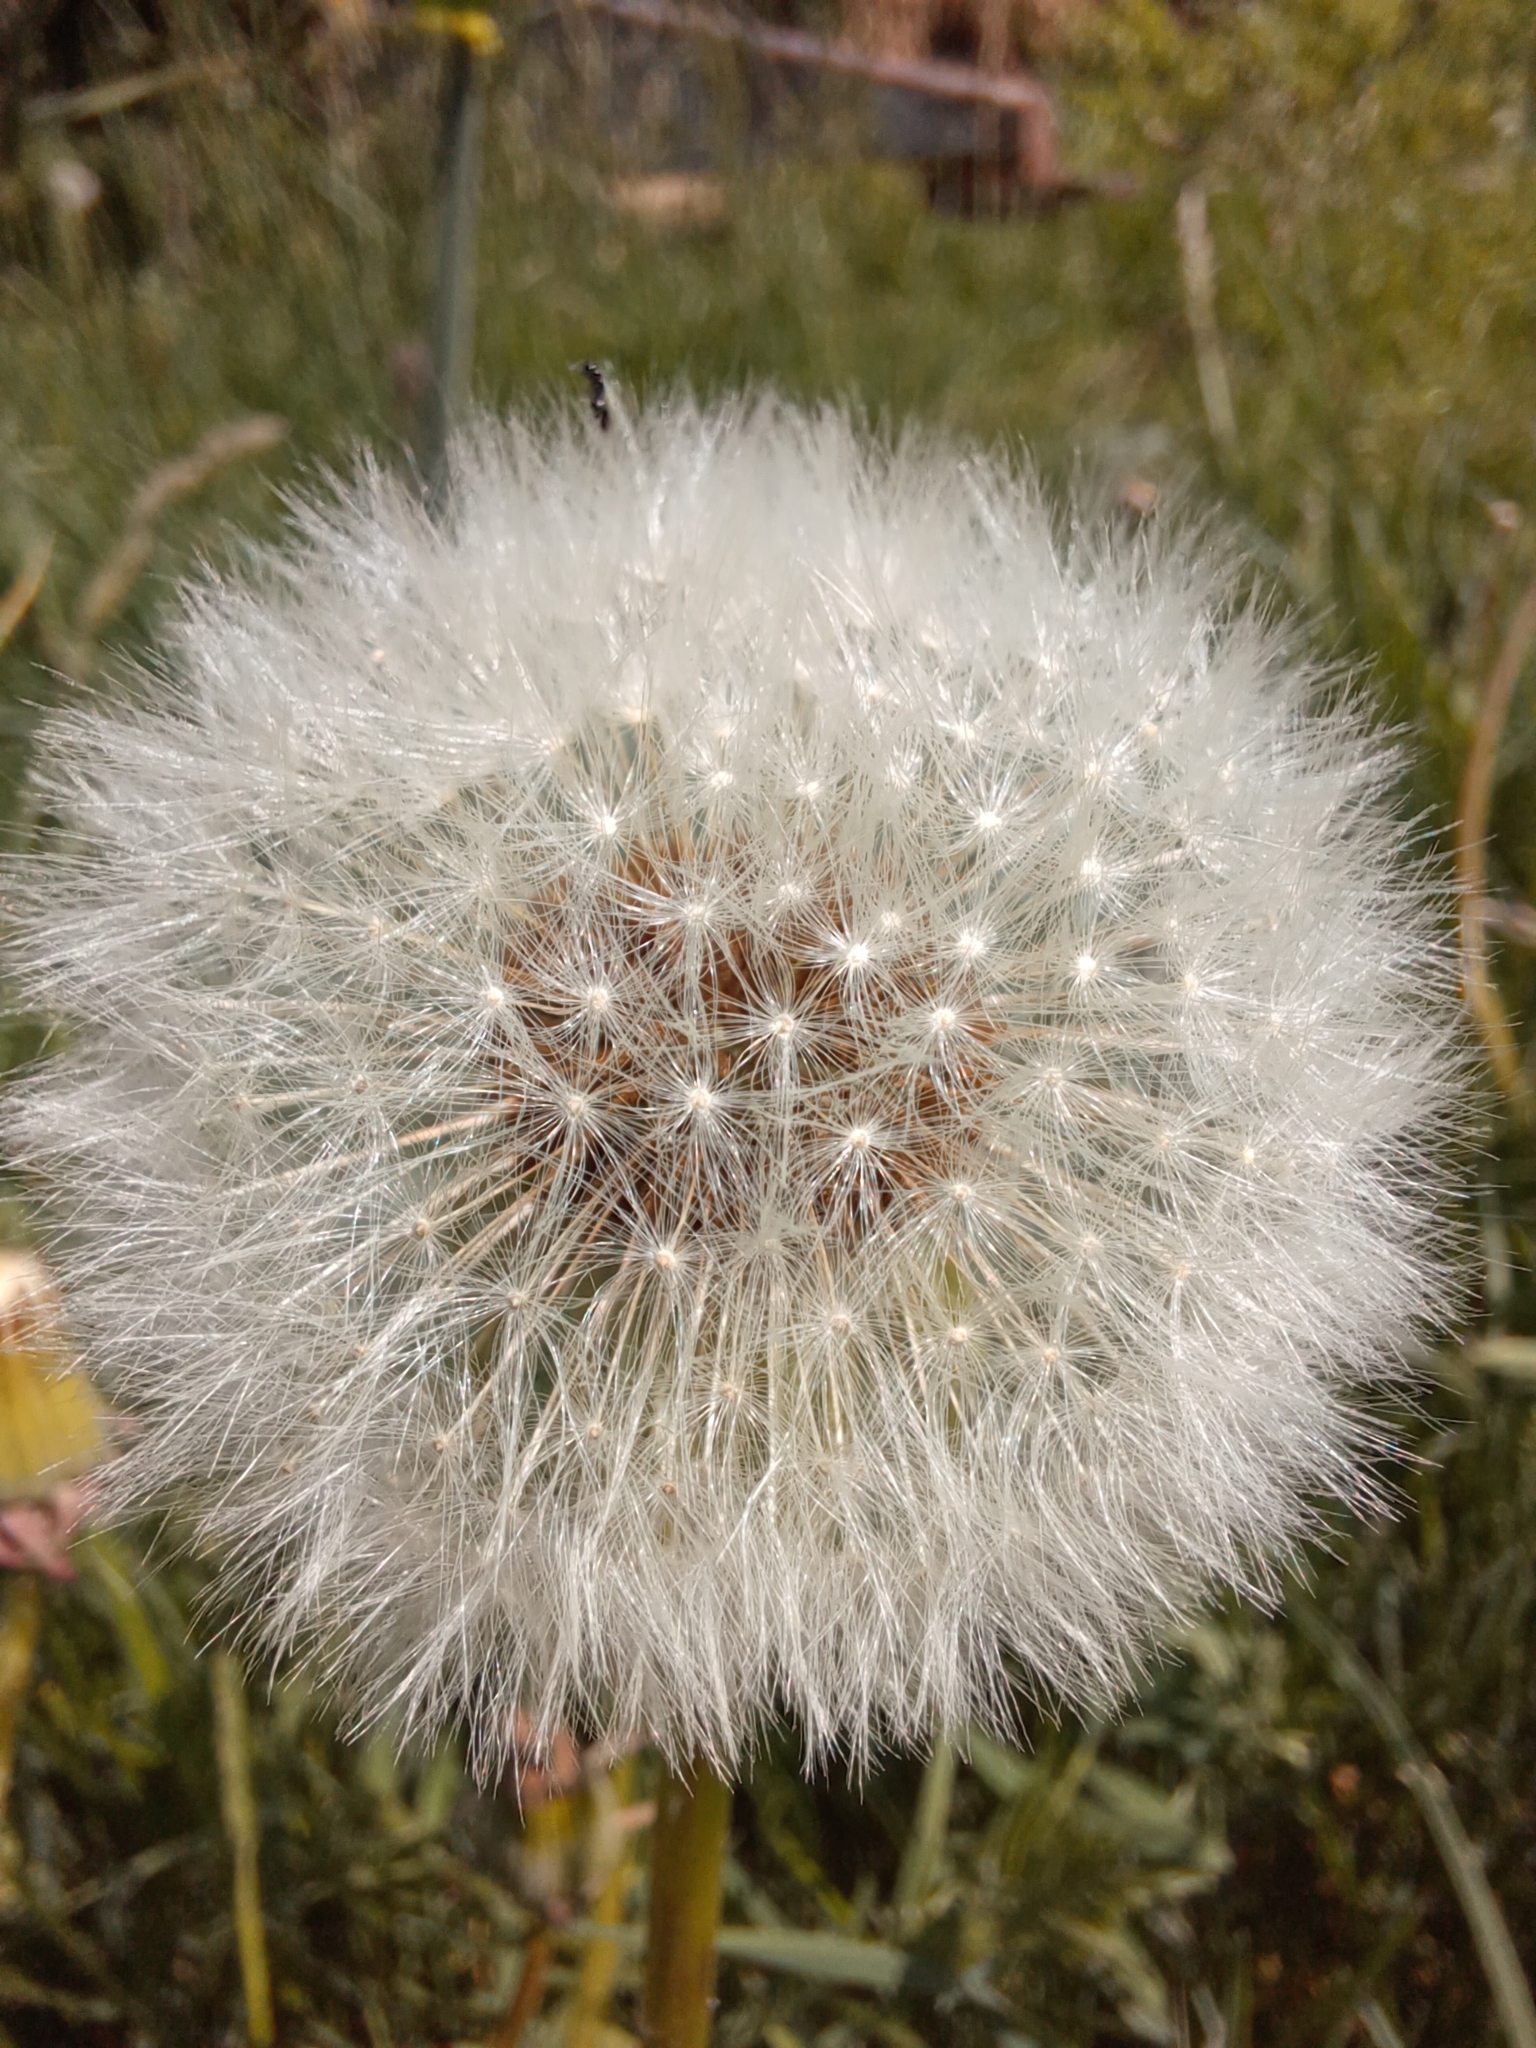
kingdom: Plantae
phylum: Tracheophyta
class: Magnoliopsida
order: Asterales
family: Asteraceae
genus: Taraxacum
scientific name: Taraxacum officinale
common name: Common dandelion
